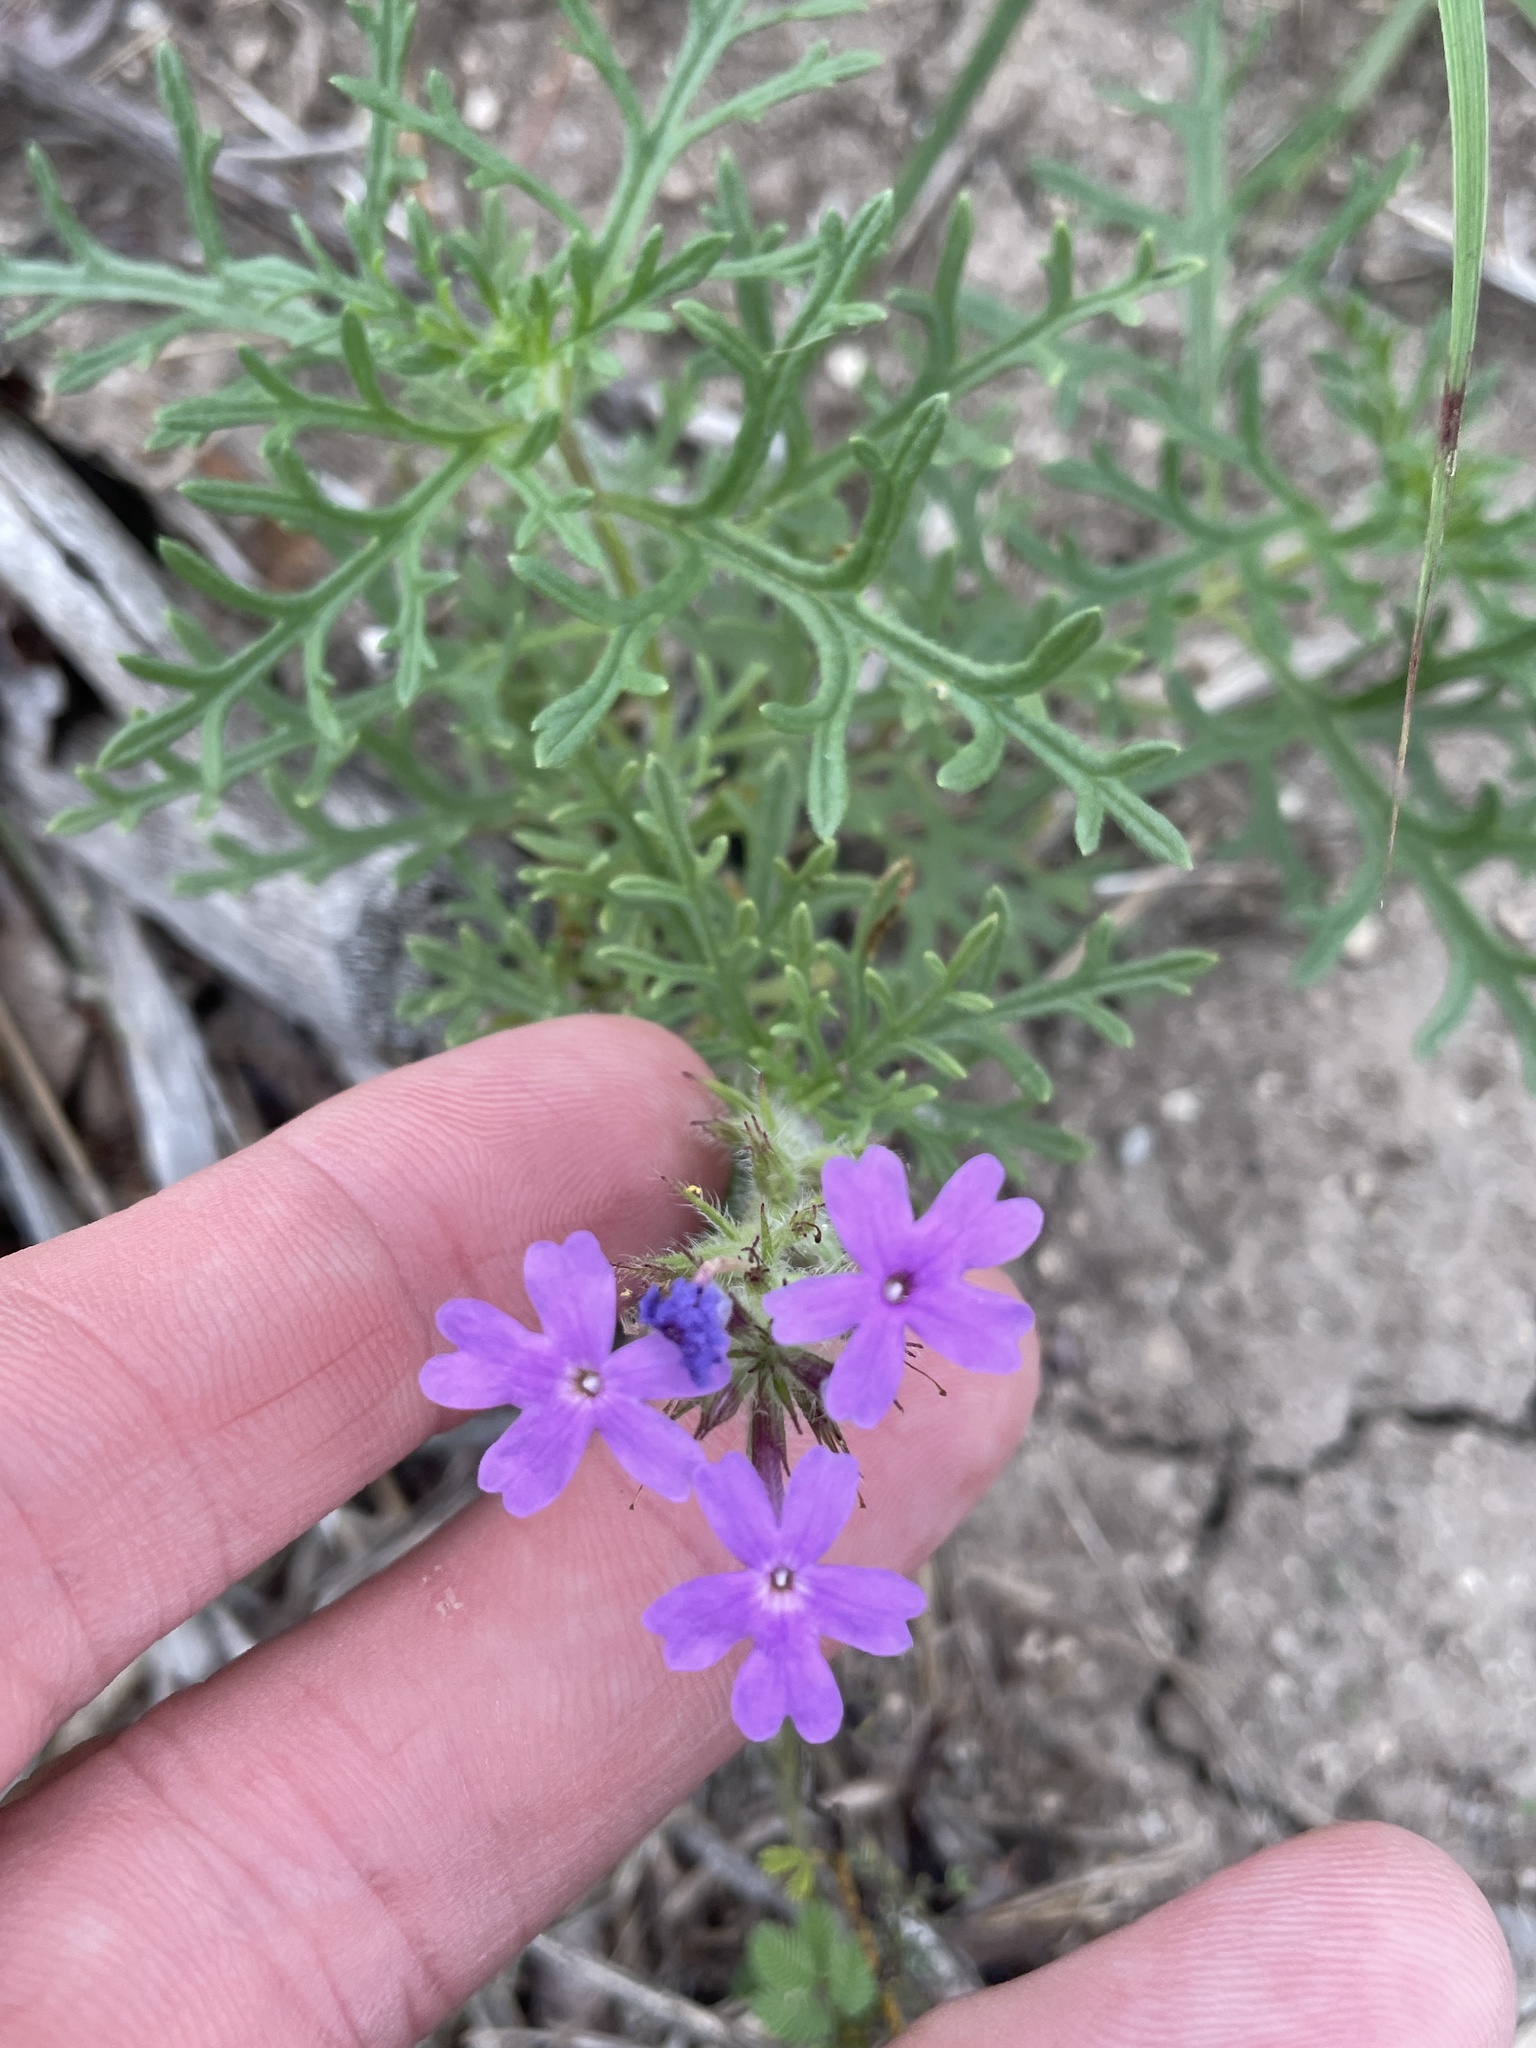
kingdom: Plantae
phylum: Tracheophyta
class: Magnoliopsida
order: Lamiales
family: Verbenaceae
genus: Verbena
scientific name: Verbena bipinnatifida
